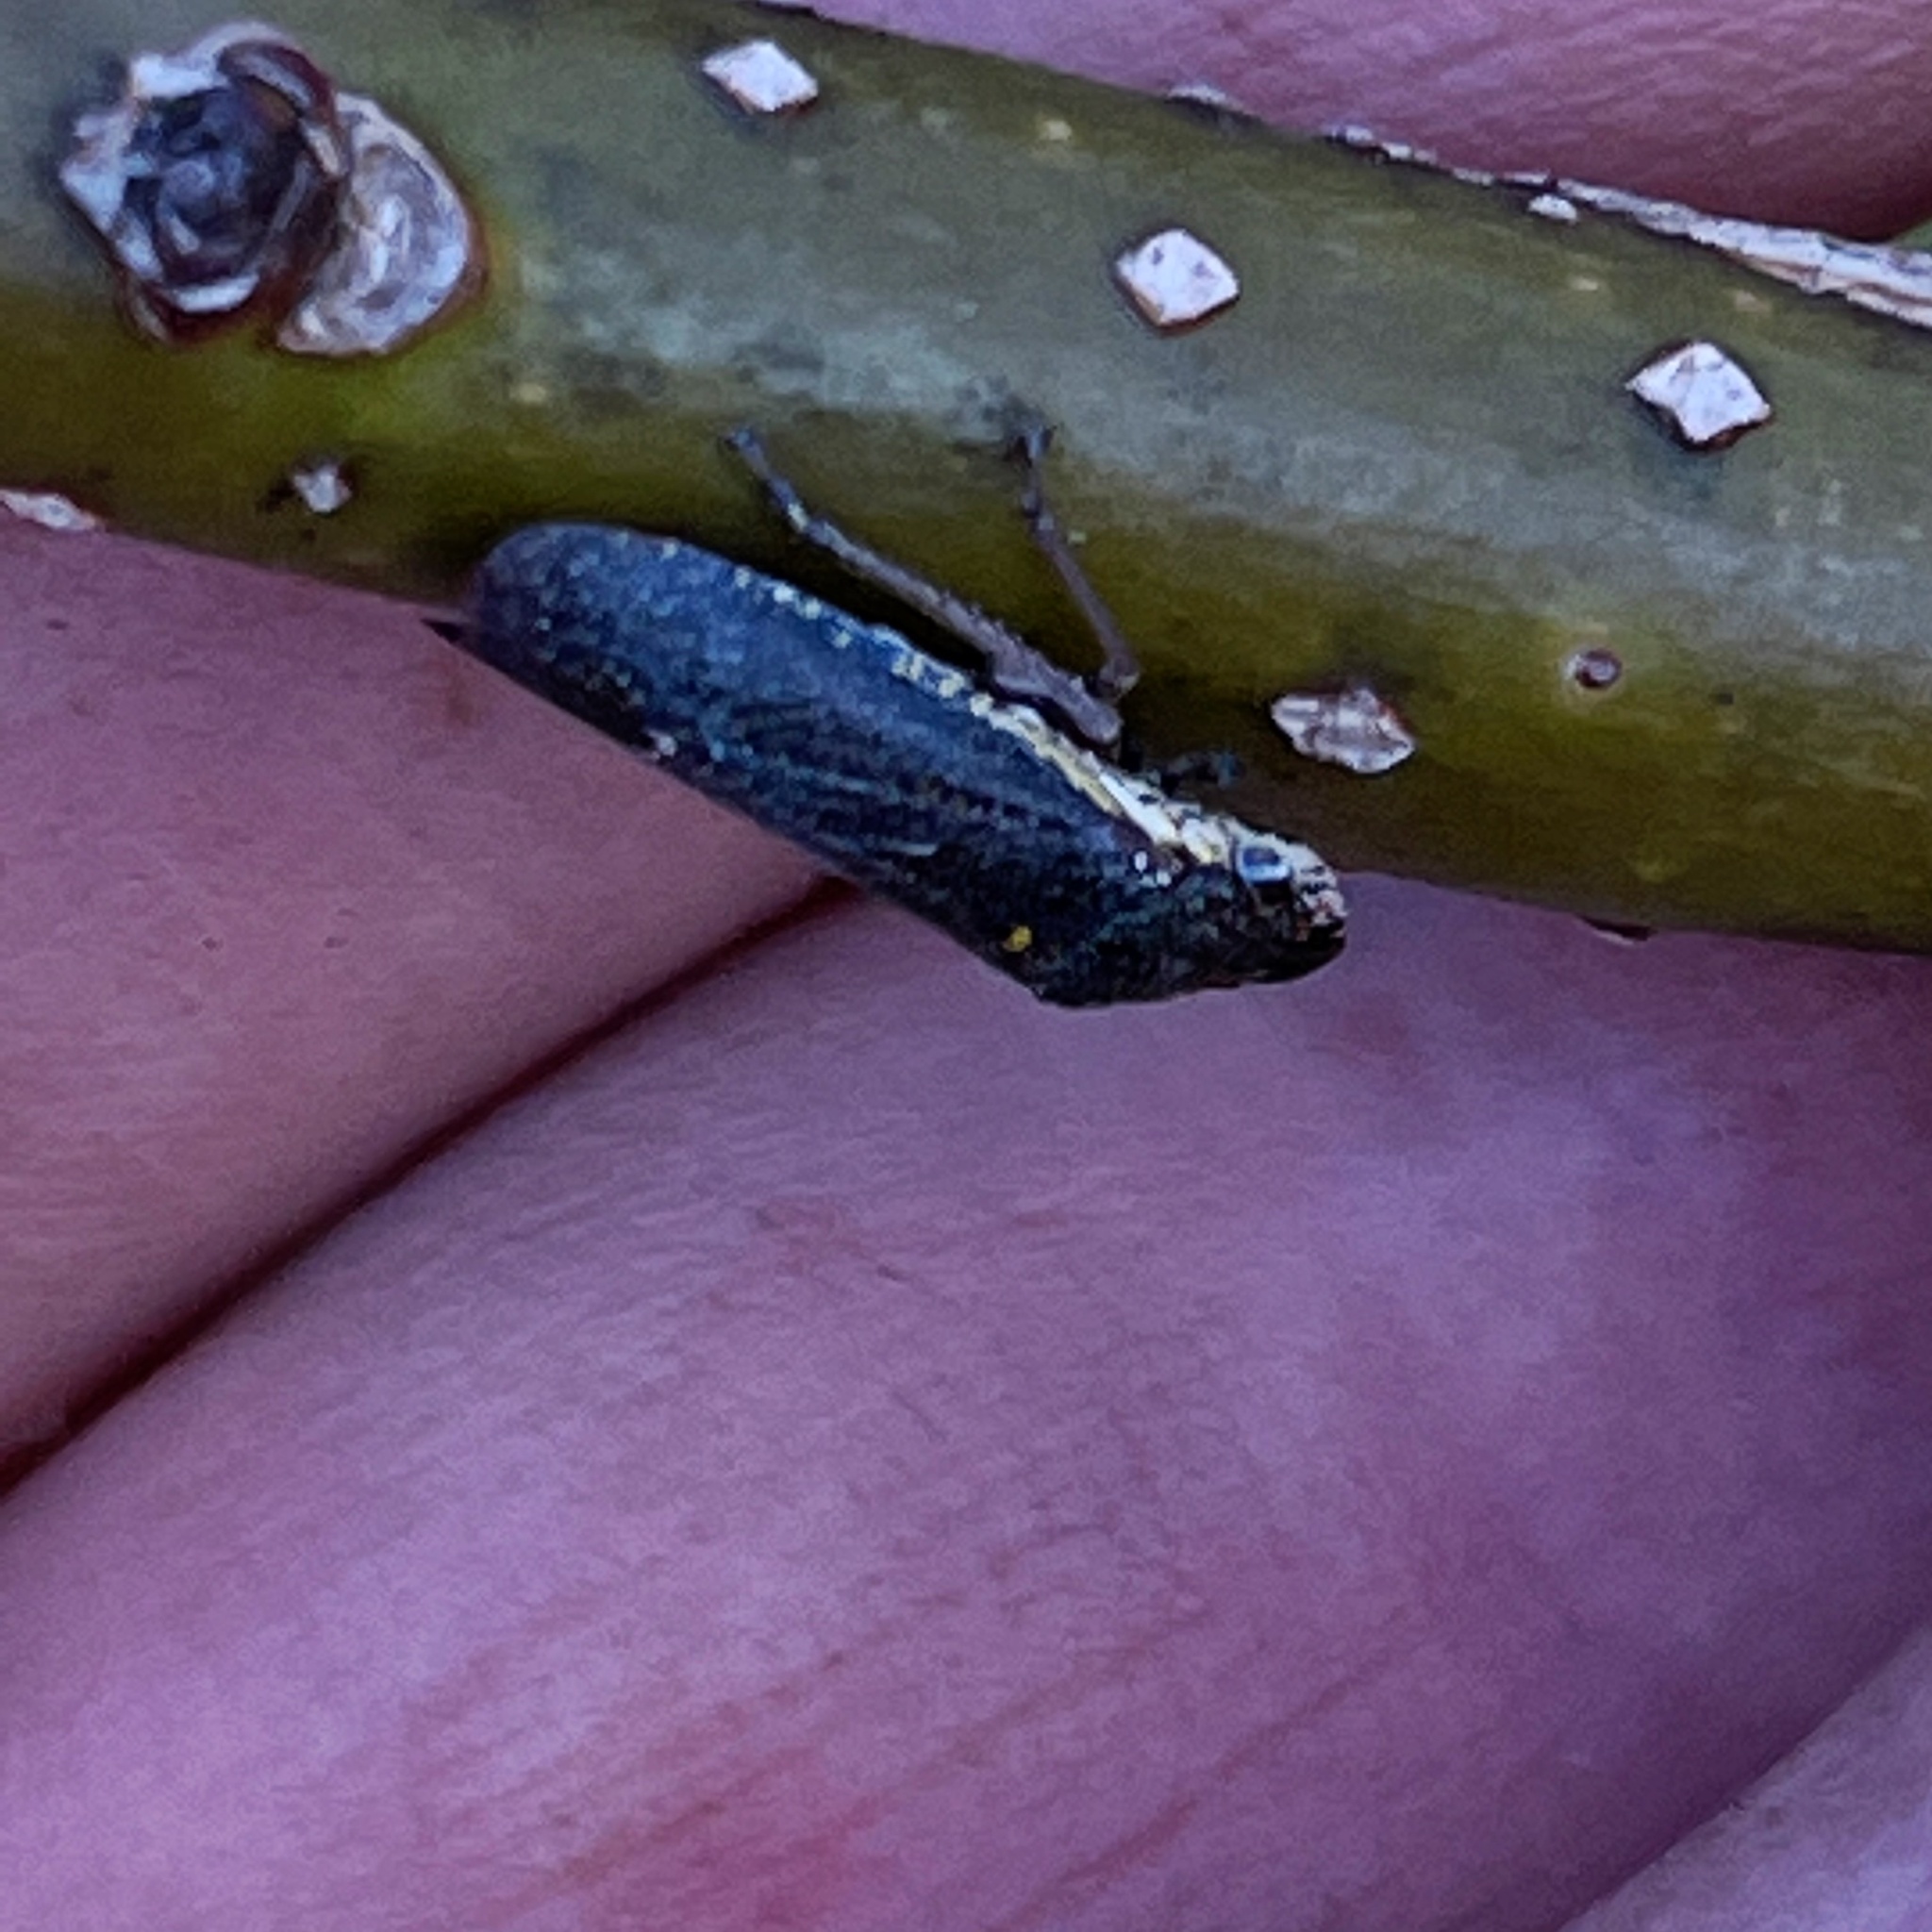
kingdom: Animalia
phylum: Arthropoda
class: Insecta
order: Hemiptera
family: Cicadellidae
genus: Paraulacizes
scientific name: Paraulacizes irrorata
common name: Speckled sharpshooter
